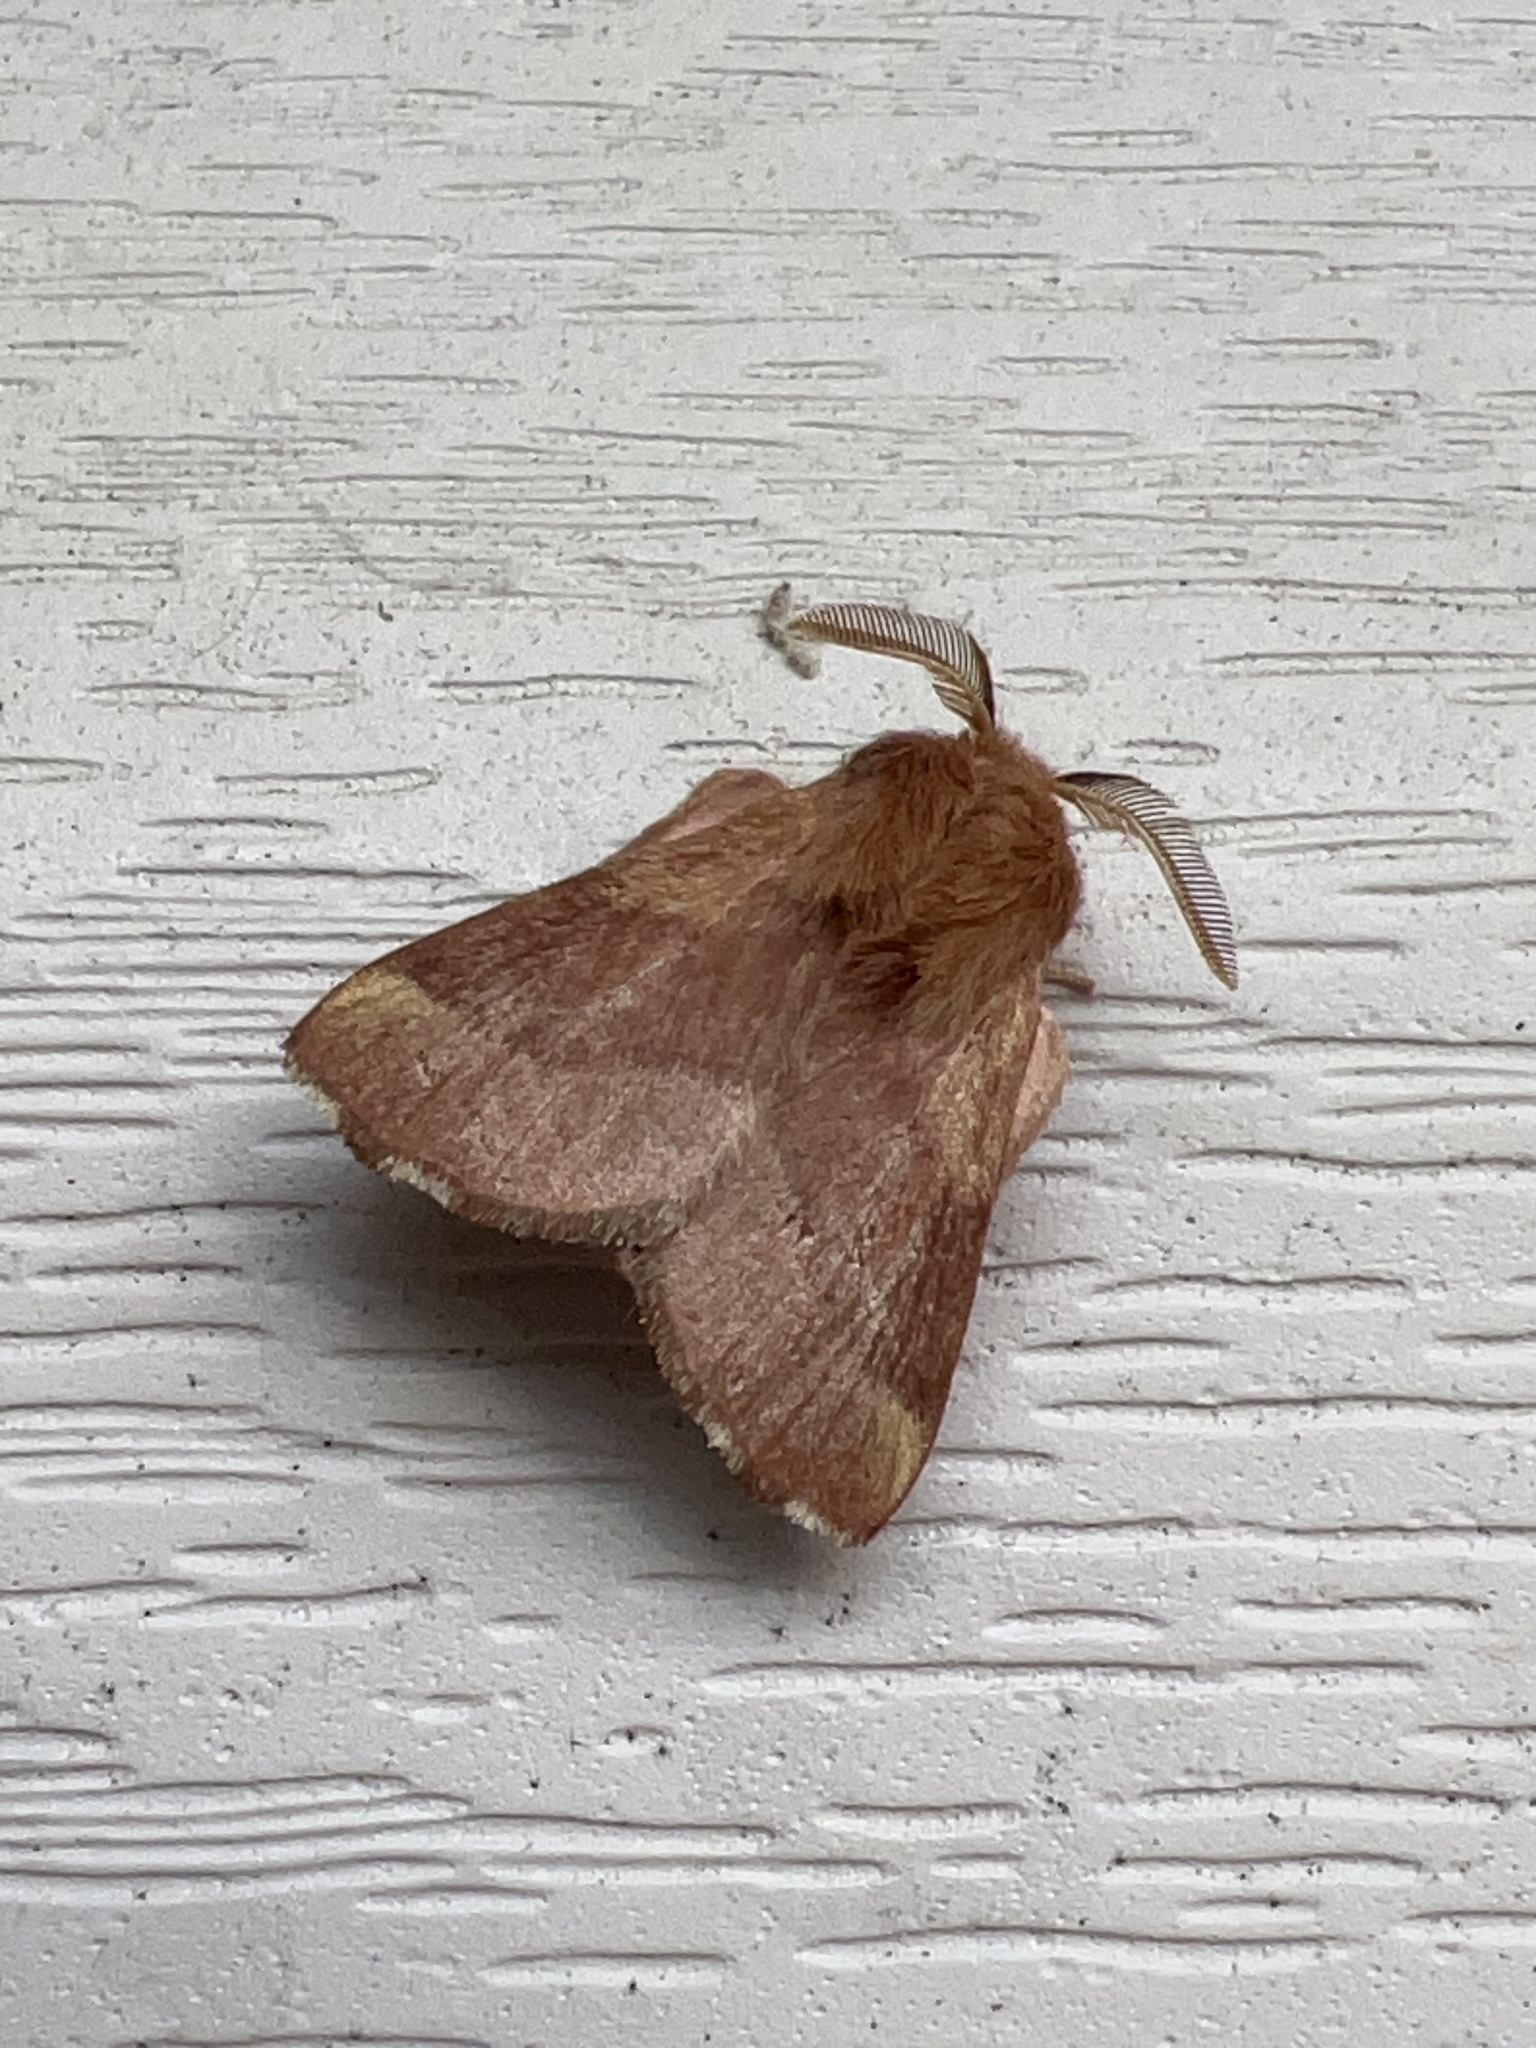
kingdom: Animalia
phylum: Arthropoda
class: Insecta
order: Lepidoptera
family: Lasiocampidae
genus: Malacosoma
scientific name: Malacosoma disstria
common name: Forest tent caterpillar
